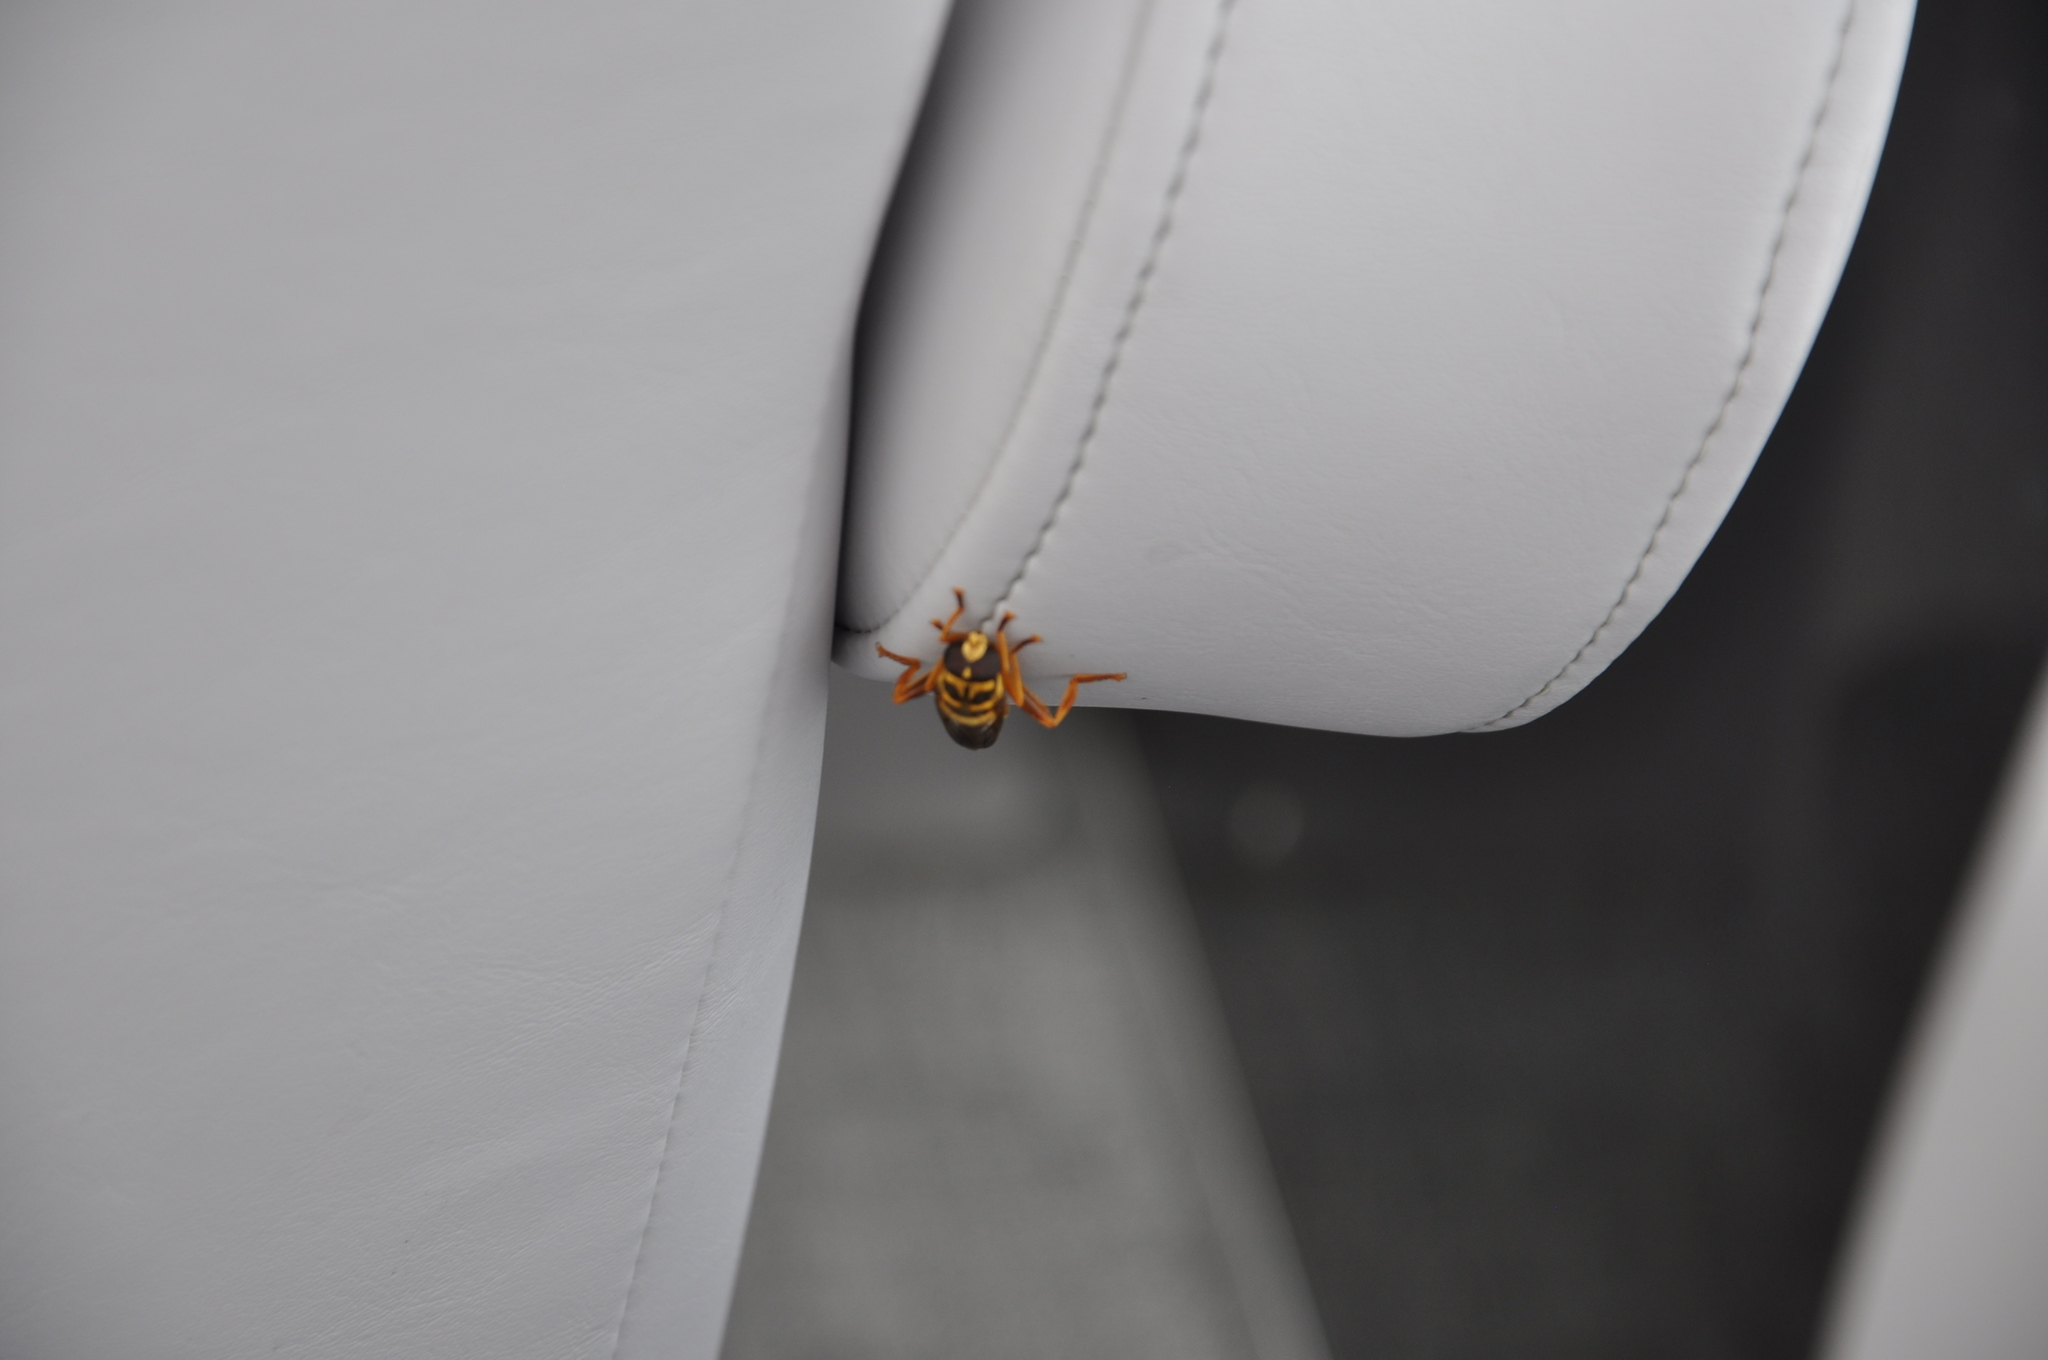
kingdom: Animalia
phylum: Arthropoda
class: Insecta
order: Diptera
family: Syrphidae
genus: Milesia
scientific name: Milesia virginiensis
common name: Virginia giant
